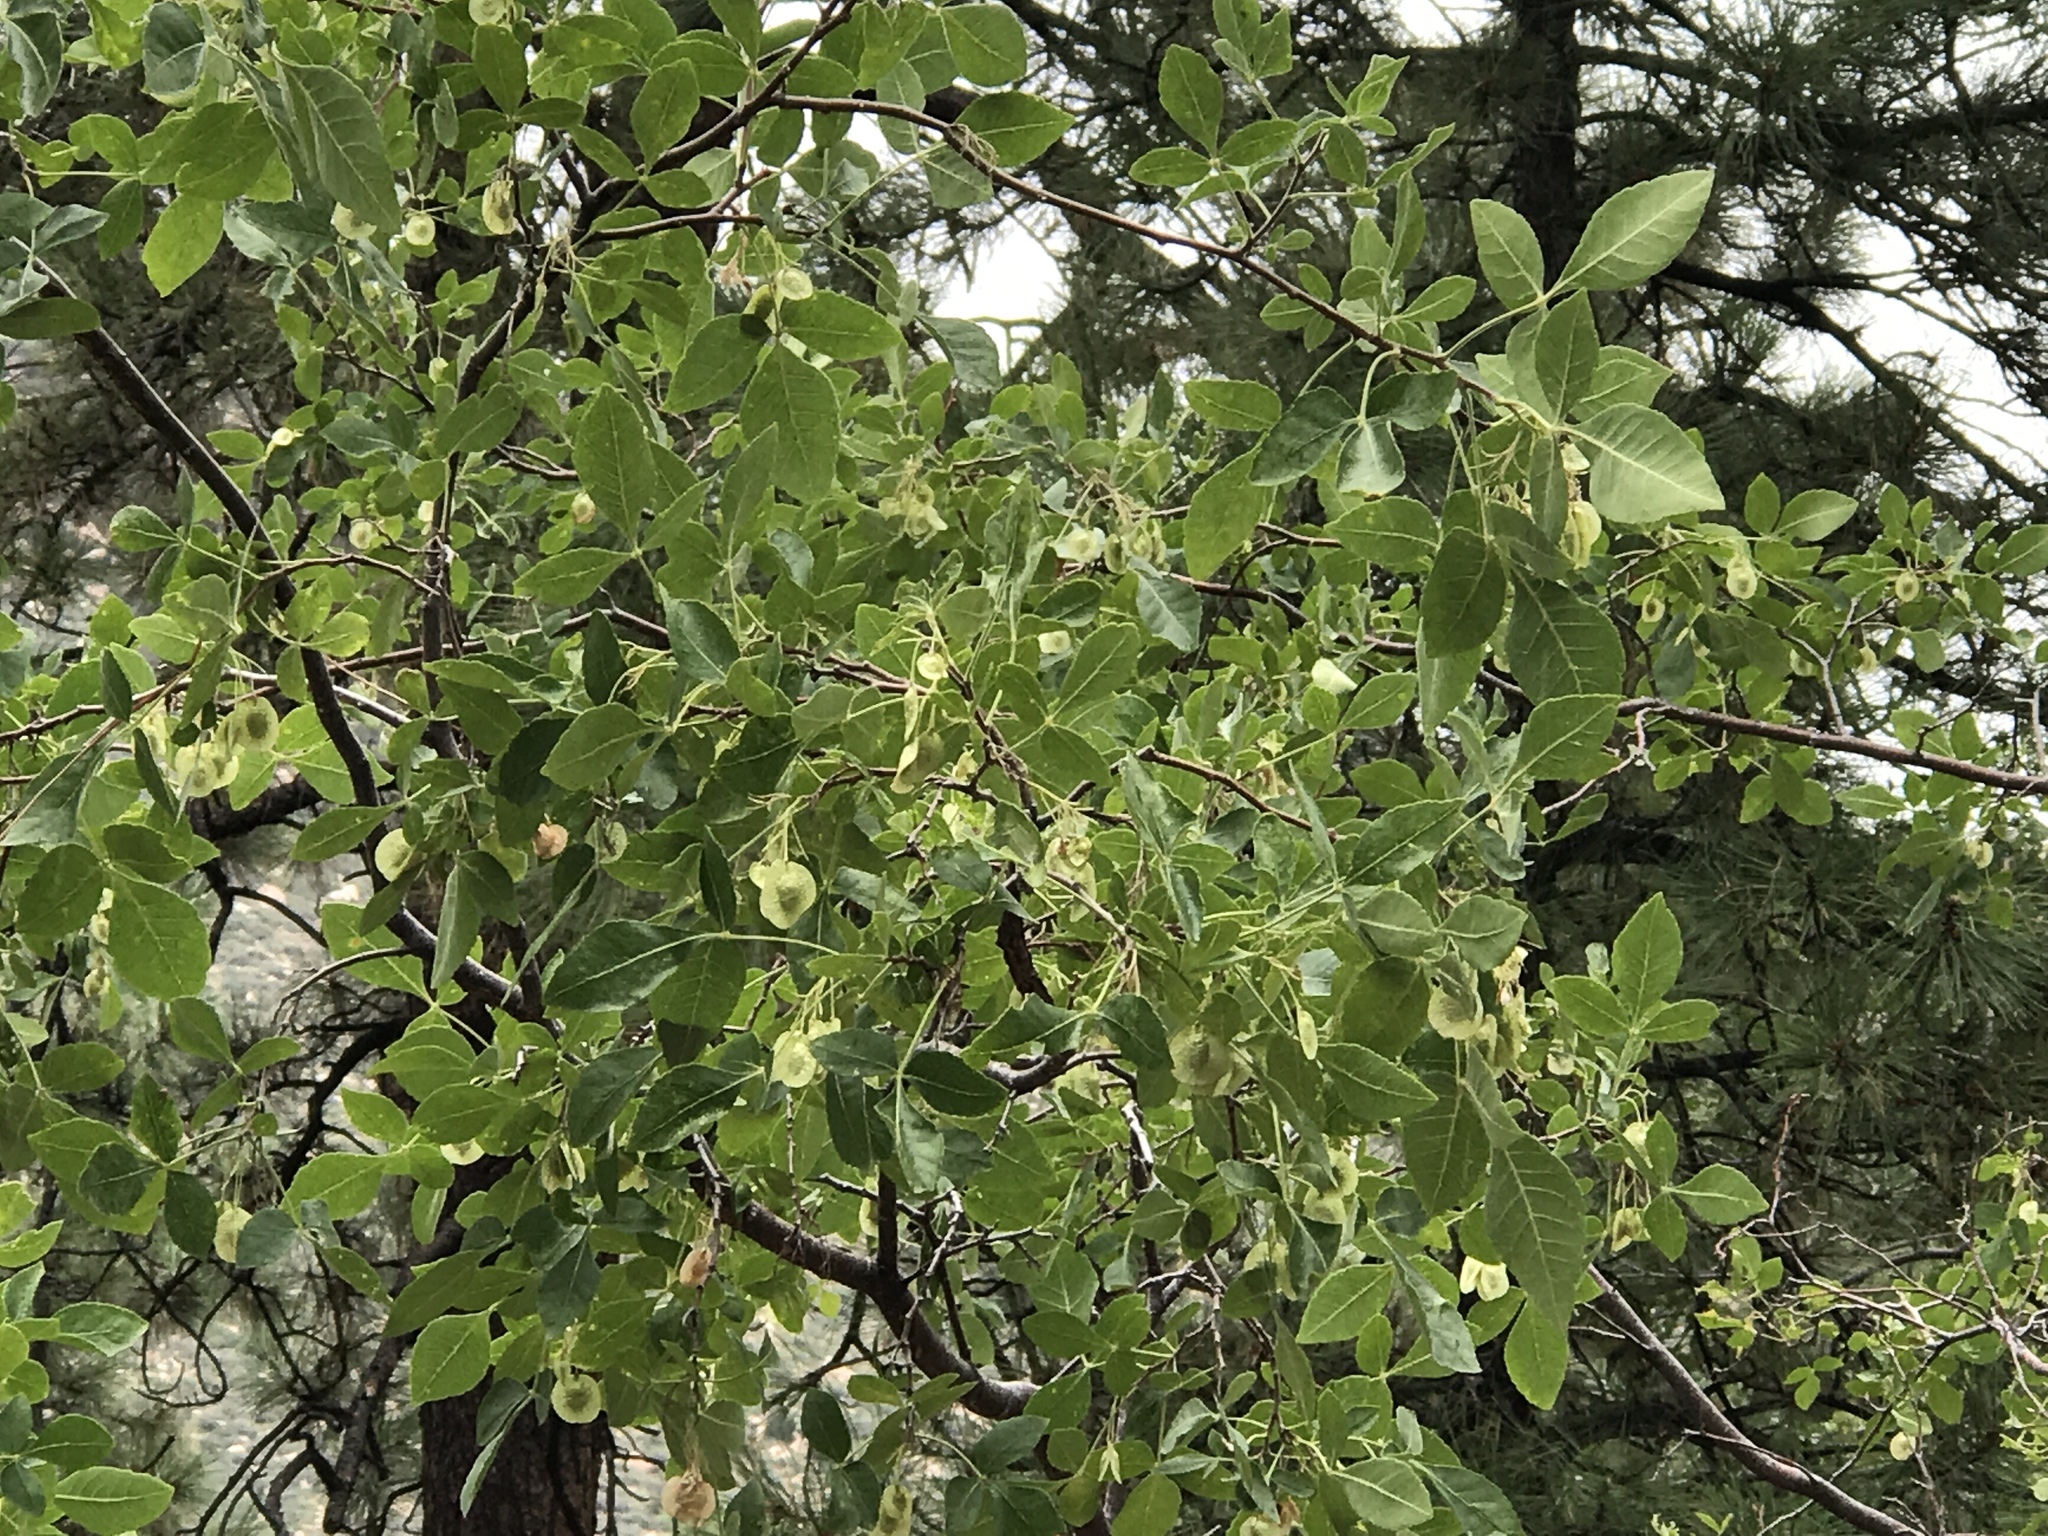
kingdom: Plantae
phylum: Tracheophyta
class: Magnoliopsida
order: Sapindales
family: Rutaceae
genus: Ptelea
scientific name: Ptelea trifoliata
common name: Common hop-tree
